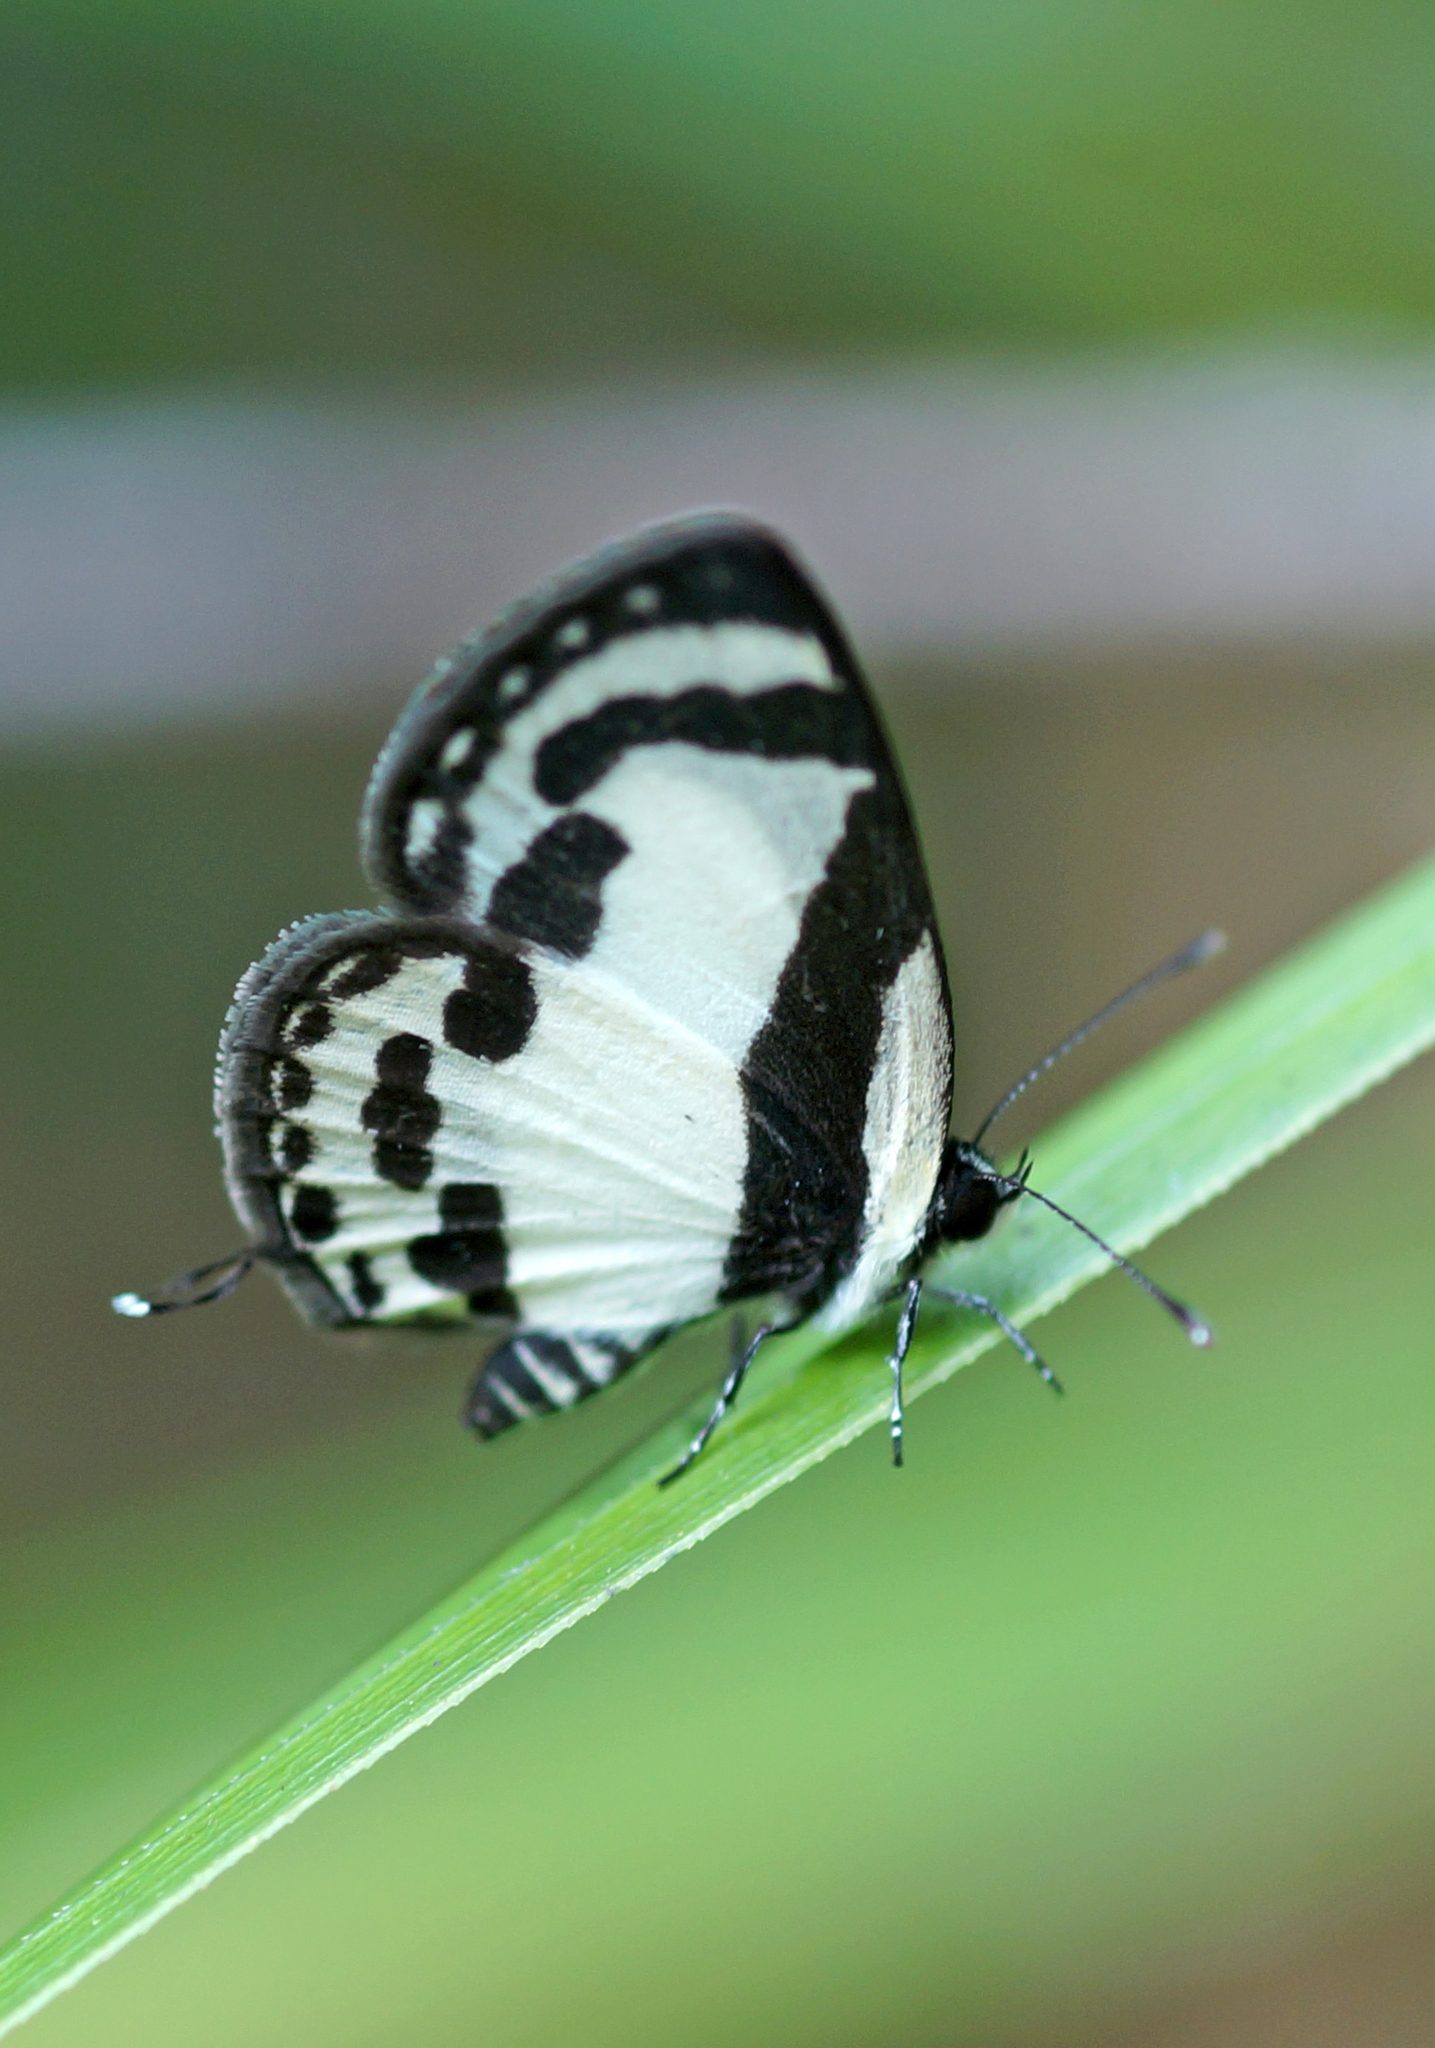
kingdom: Animalia
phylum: Arthropoda
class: Insecta
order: Lepidoptera
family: Lycaenidae
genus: Caleta
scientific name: Caleta roxus
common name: Straight pierrot
